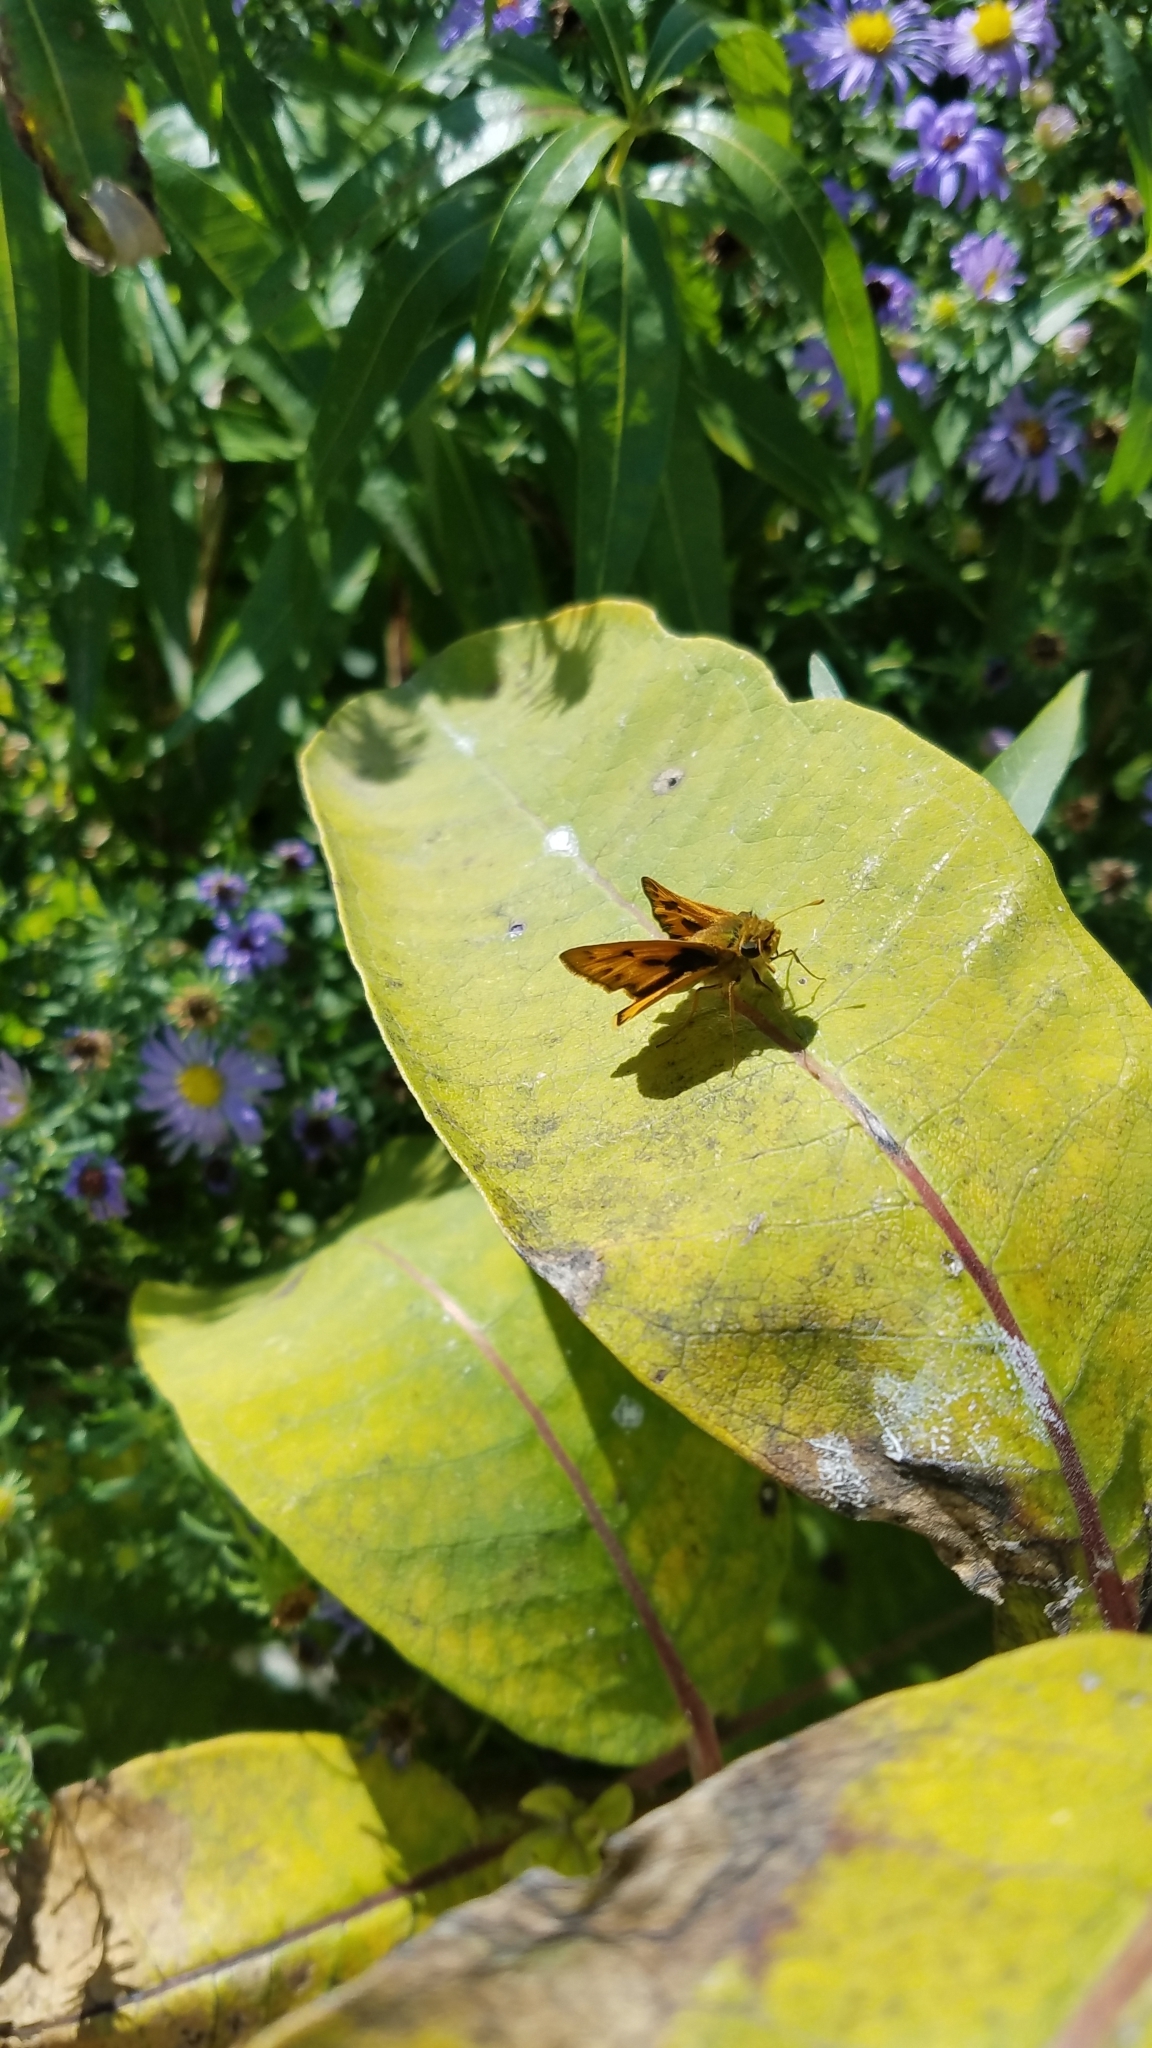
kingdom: Animalia
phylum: Arthropoda
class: Insecta
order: Lepidoptera
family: Hesperiidae
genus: Hylephila
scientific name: Hylephila phyleus
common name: Fiery skipper
